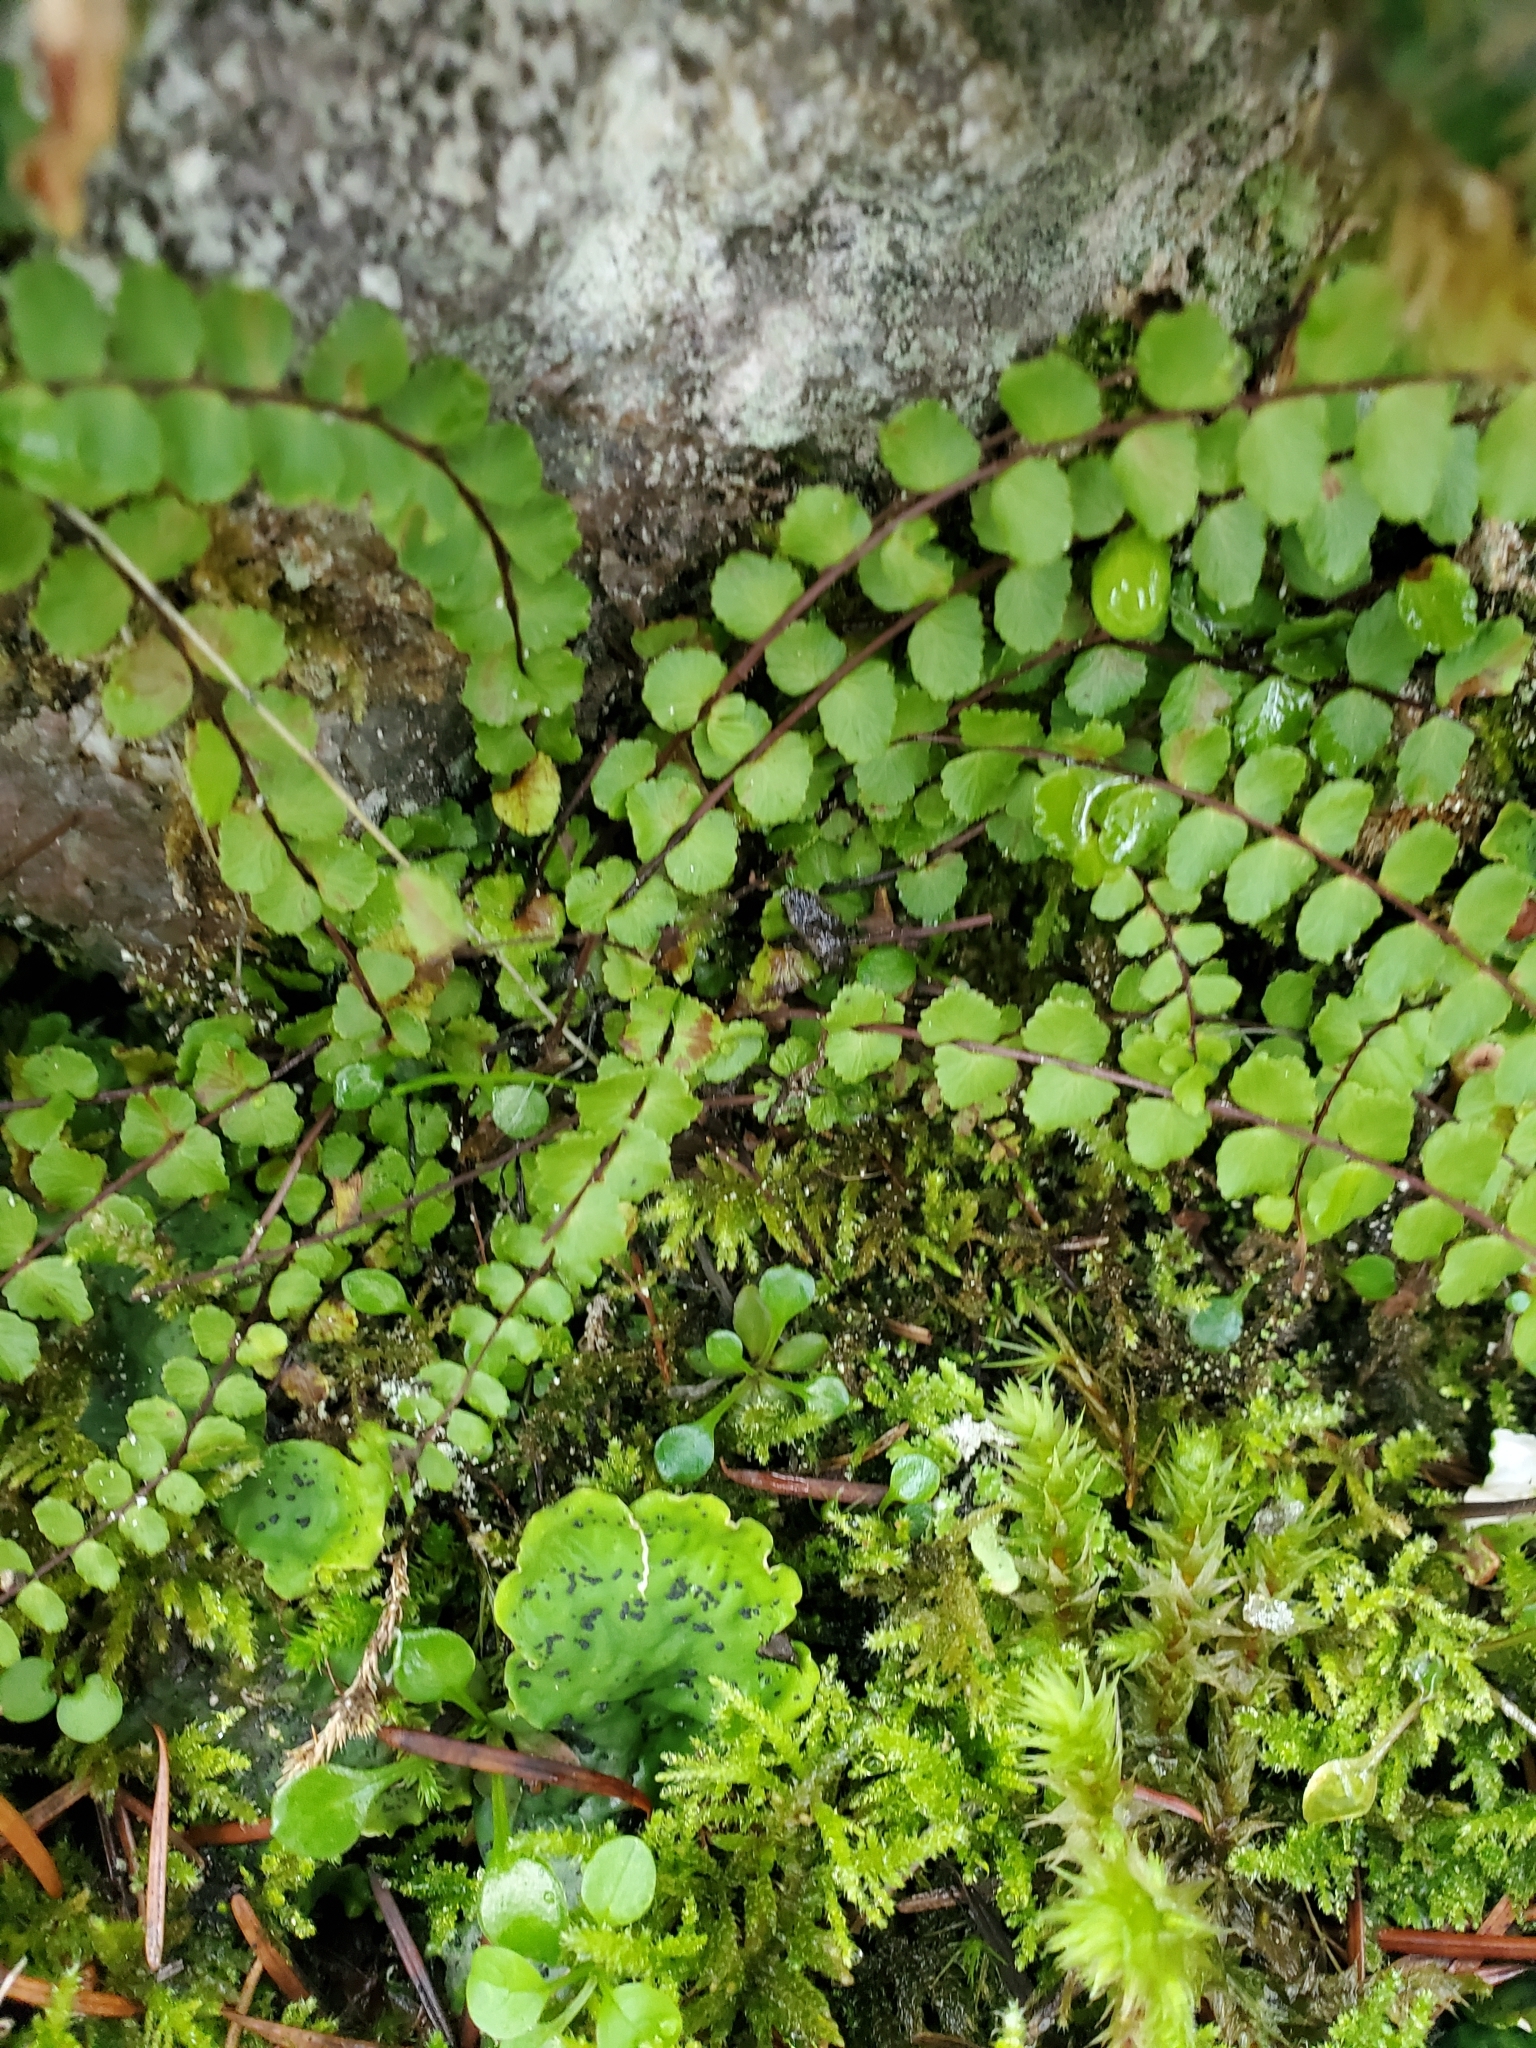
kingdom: Plantae
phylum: Tracheophyta
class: Polypodiopsida
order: Polypodiales
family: Aspleniaceae
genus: Asplenium
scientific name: Asplenium trichomanes
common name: Maidenhair spleenwort
